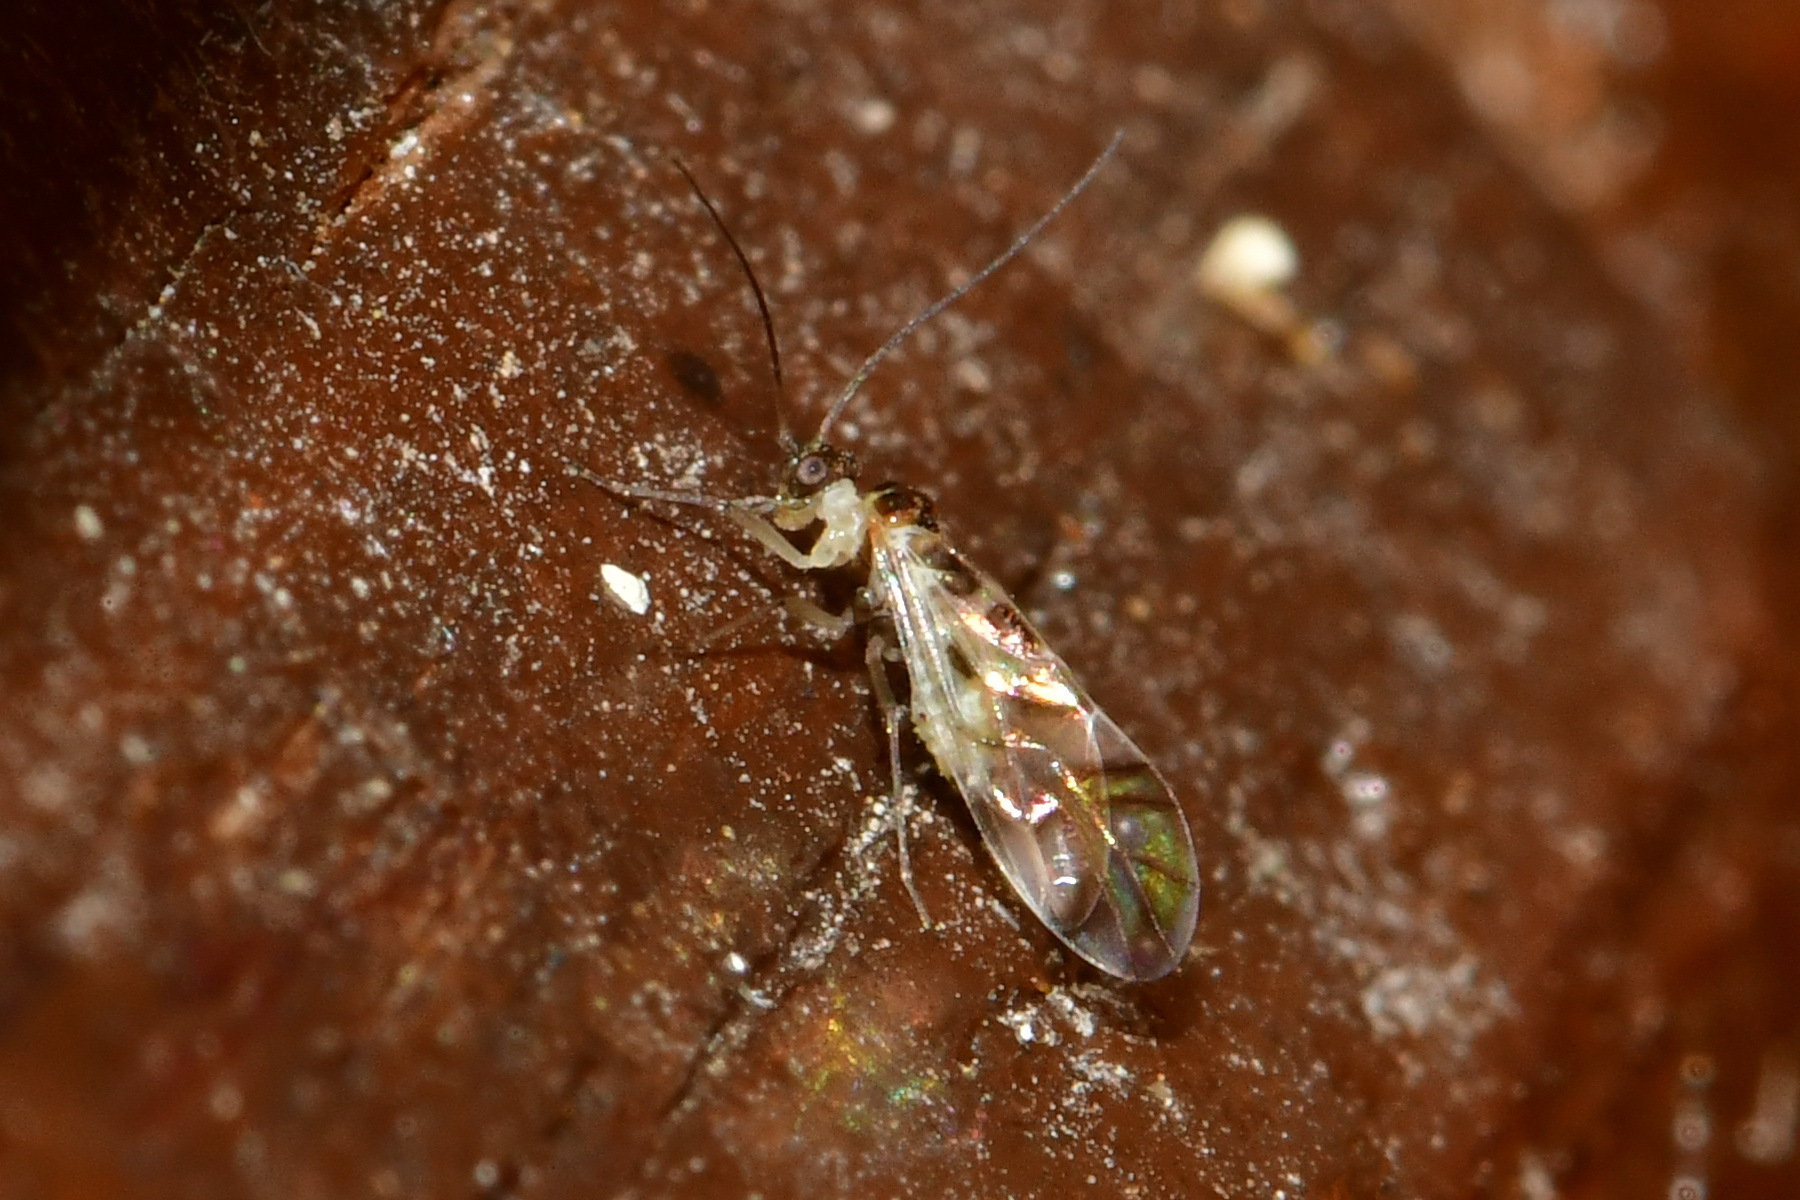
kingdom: Animalia
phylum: Arthropoda
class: Insecta
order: Psocodea
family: Stenopsocidae
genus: Graphopsocus
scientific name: Graphopsocus cruciatus
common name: Lizard bark louse
